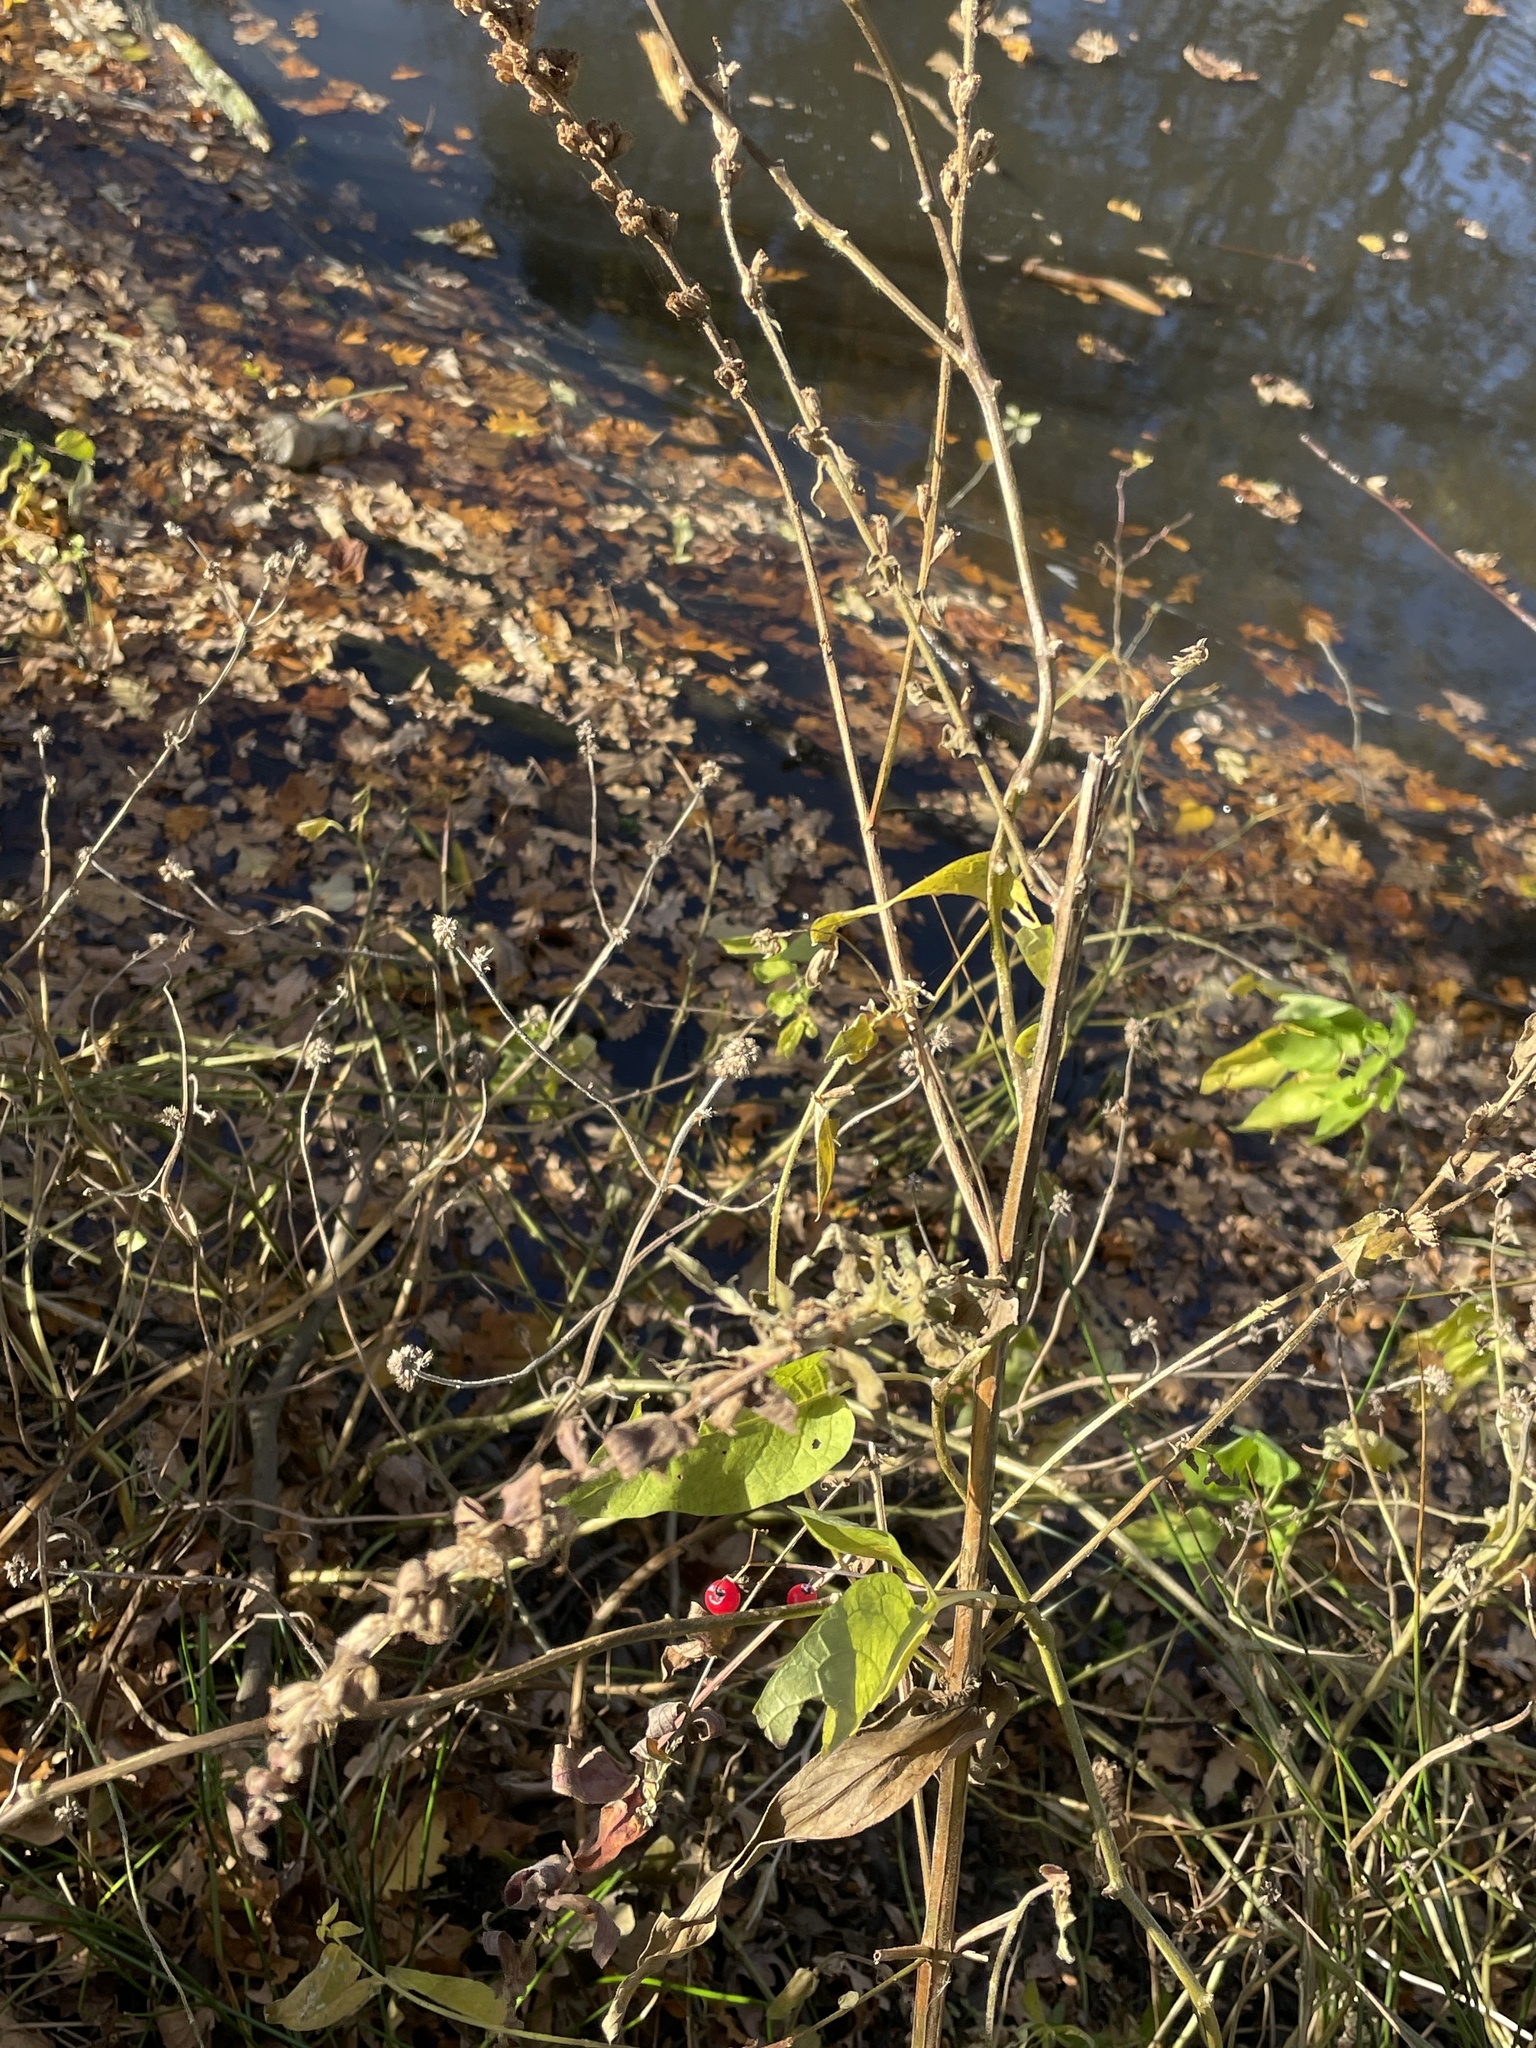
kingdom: Plantae
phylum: Tracheophyta
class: Magnoliopsida
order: Solanales
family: Solanaceae
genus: Solanum
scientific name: Solanum dulcamara
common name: Climbing nightshade
